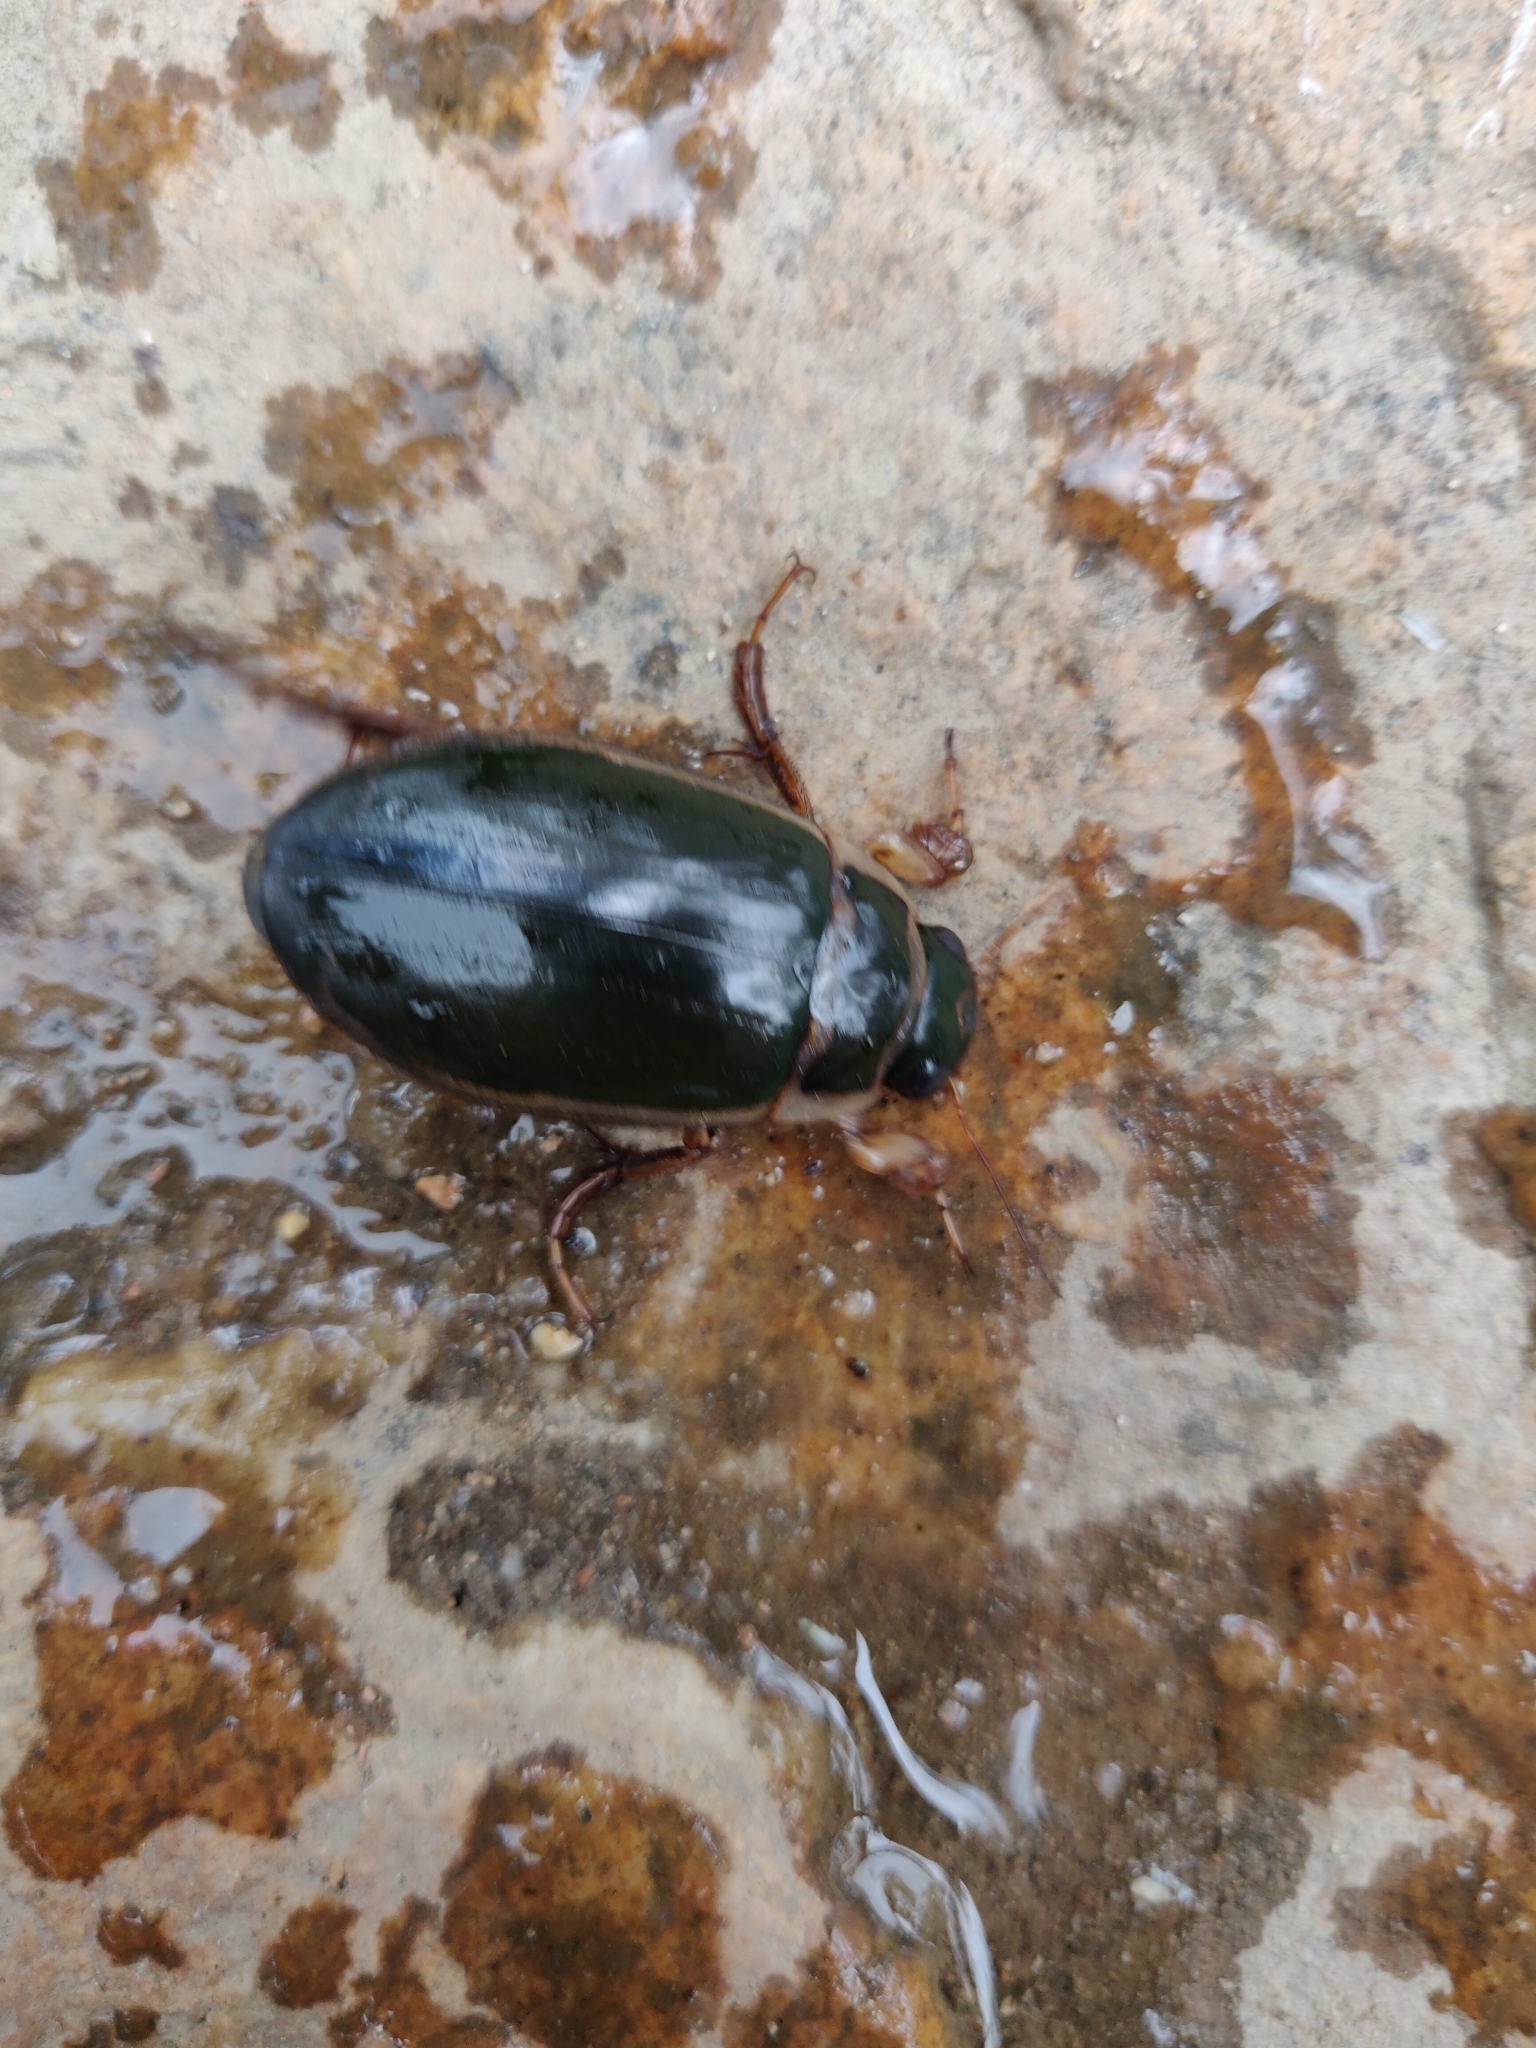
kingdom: Animalia
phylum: Arthropoda
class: Insecta
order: Coleoptera
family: Dytiscidae
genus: Dytiscus
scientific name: Dytiscus marginalis
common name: Great water beetle
